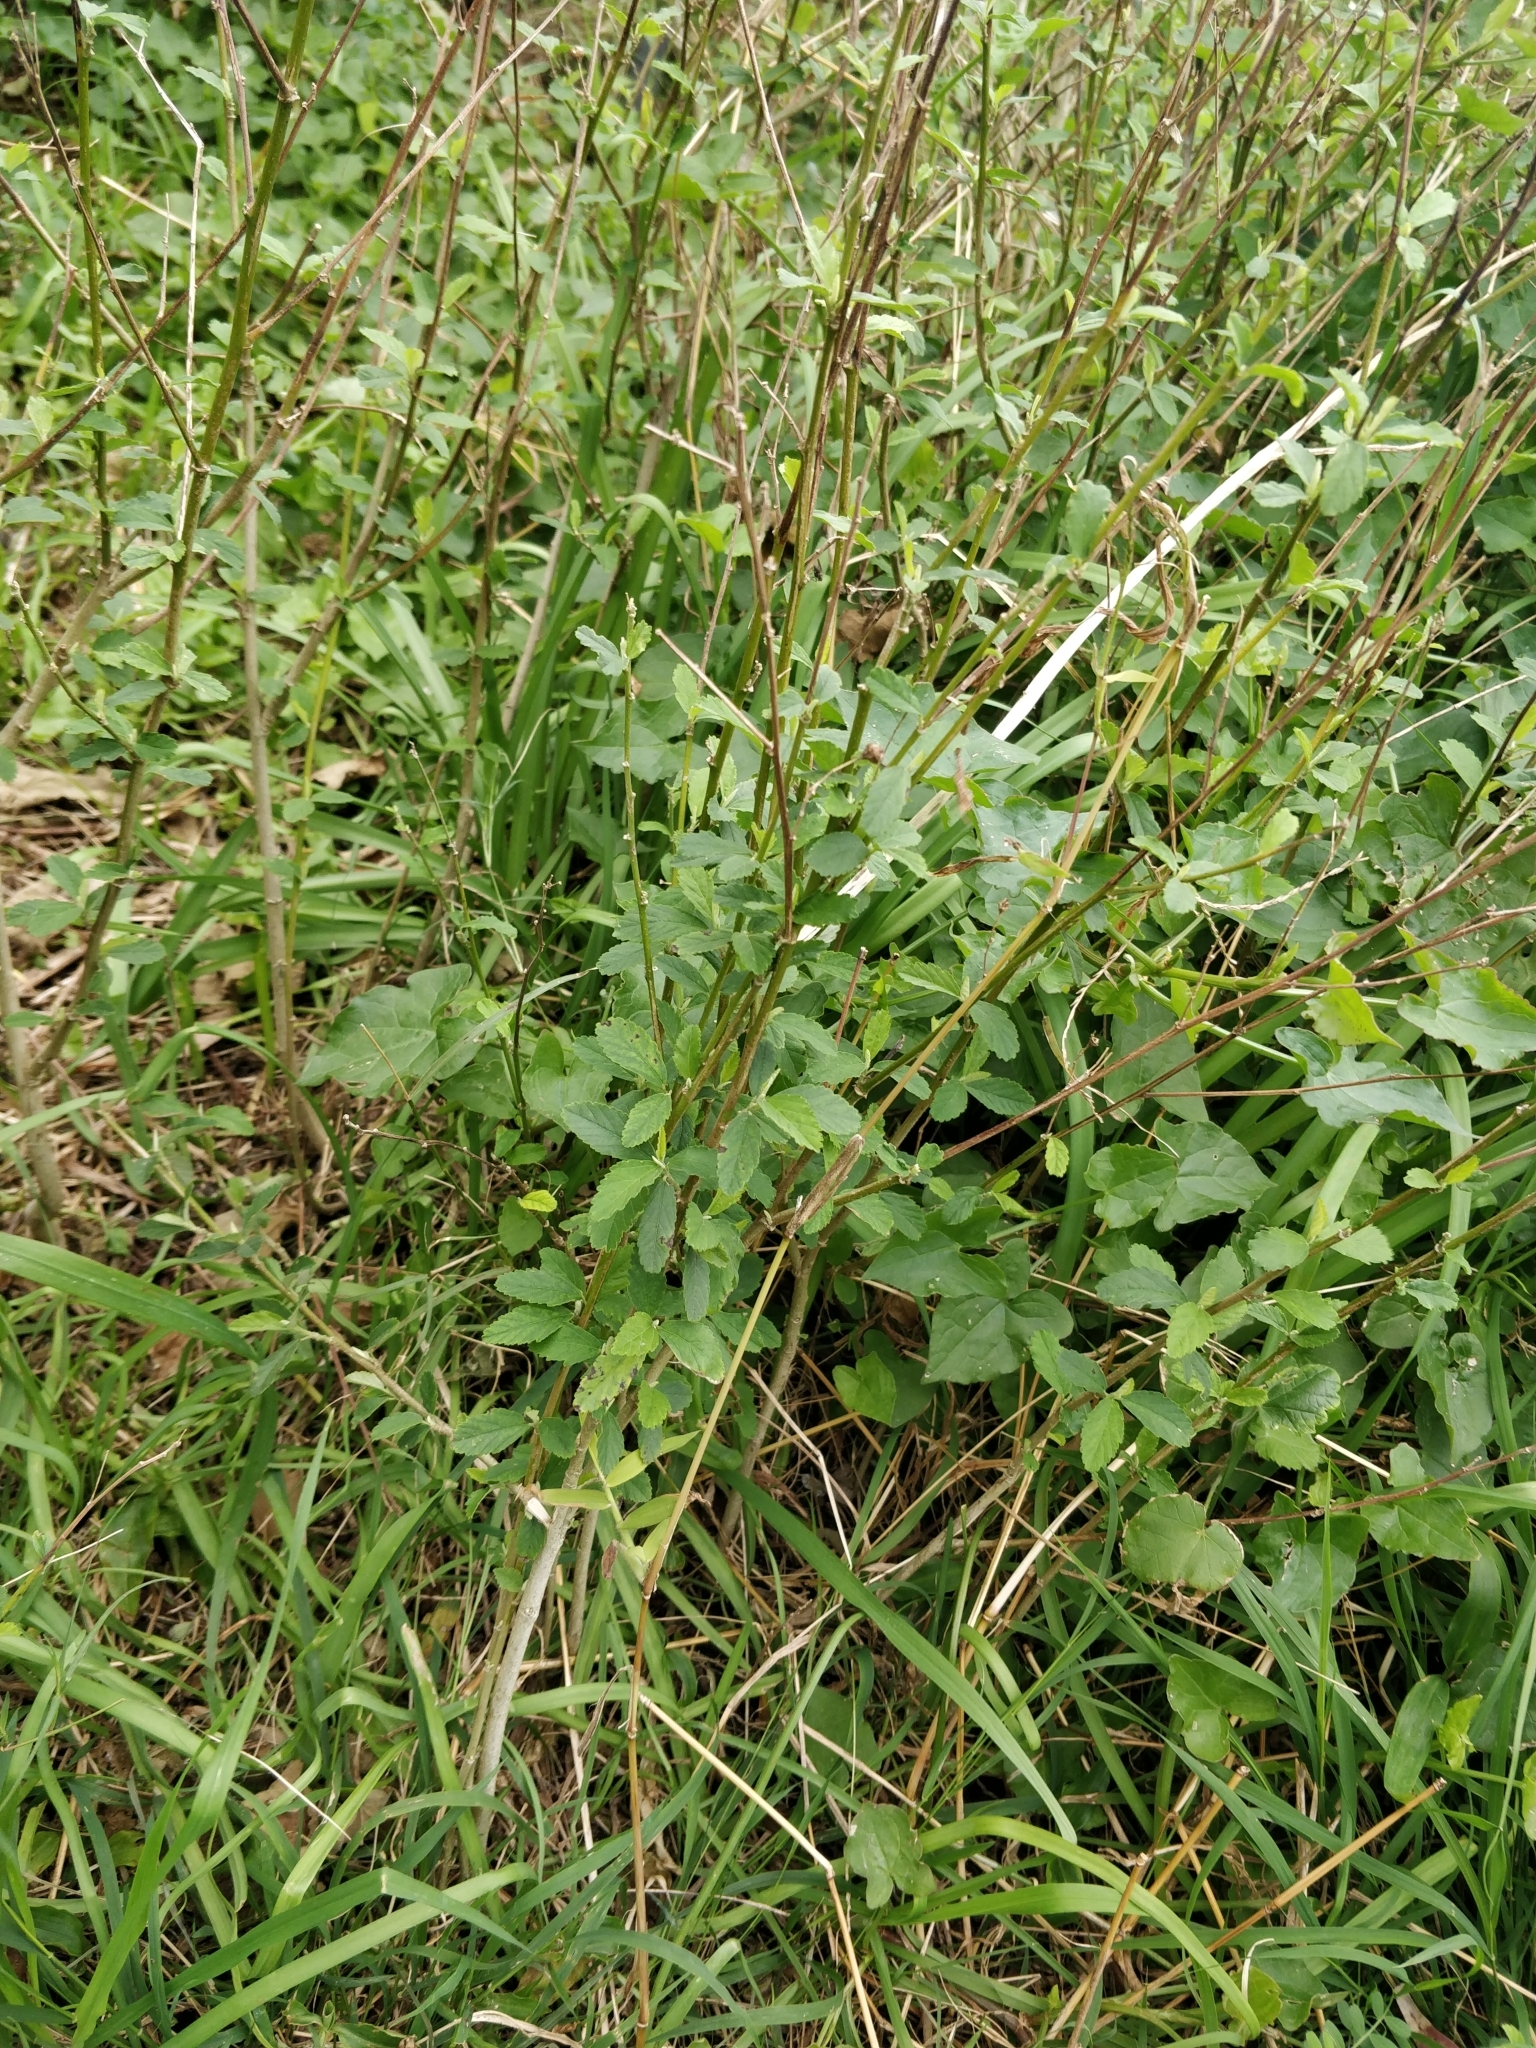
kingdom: Plantae
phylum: Tracheophyta
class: Magnoliopsida
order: Malvales
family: Malvaceae
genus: Sida
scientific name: Sida rhombifolia
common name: Queensland-hemp
